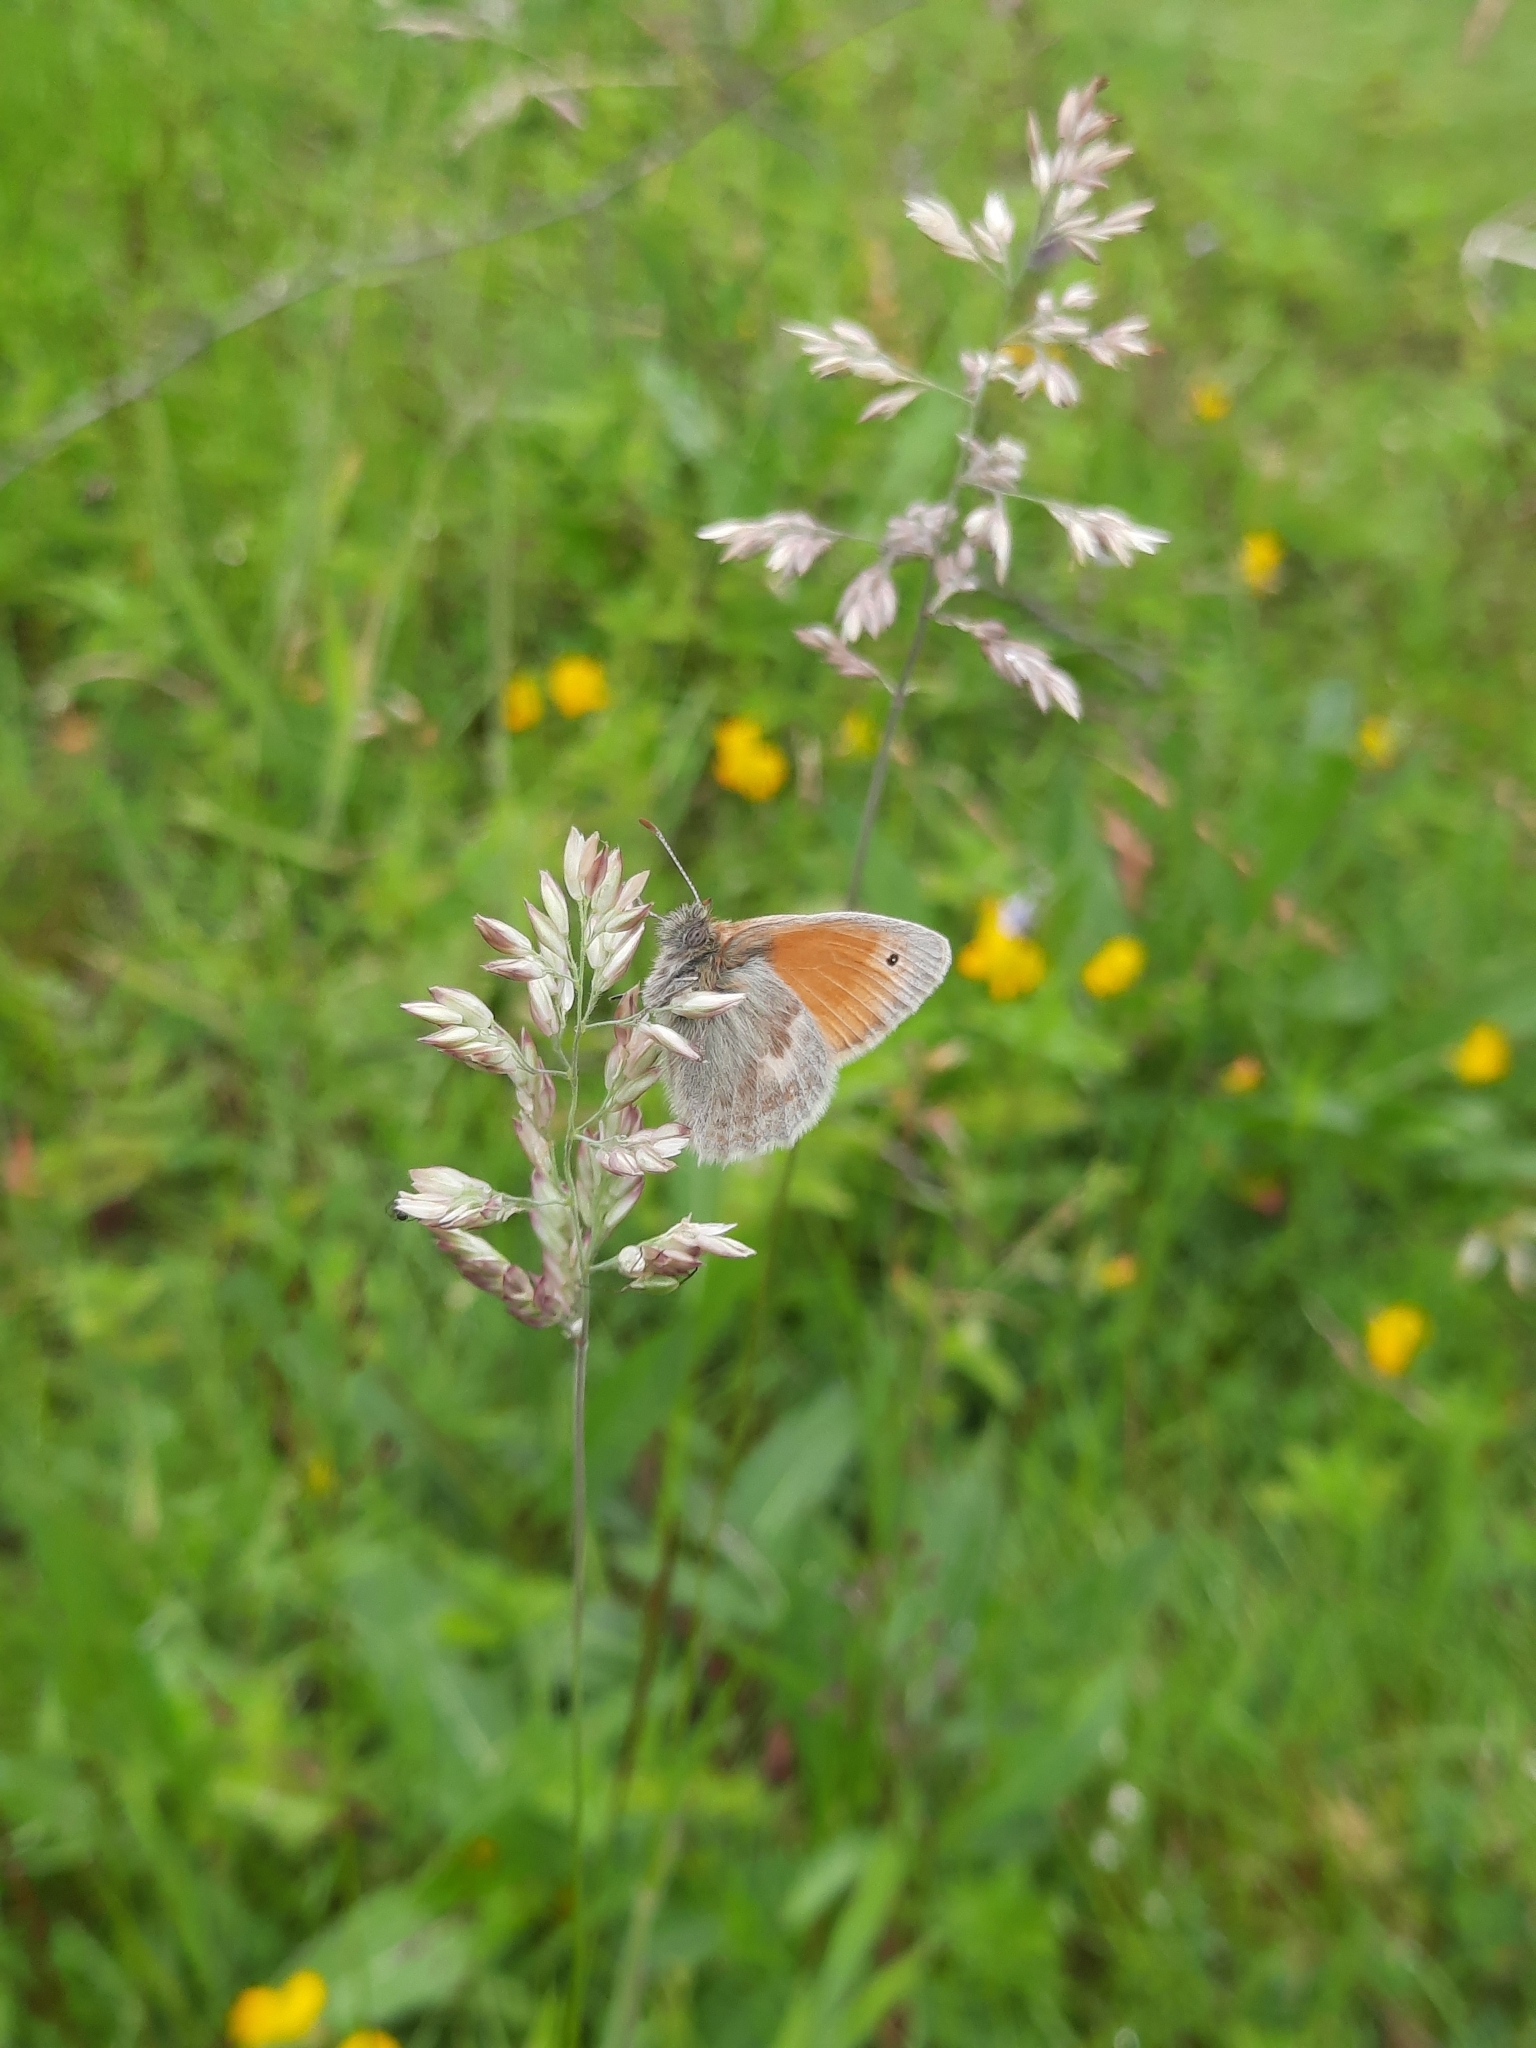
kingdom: Animalia
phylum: Arthropoda
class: Insecta
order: Lepidoptera
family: Nymphalidae
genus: Coenonympha
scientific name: Coenonympha pamphilus
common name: Small heath
